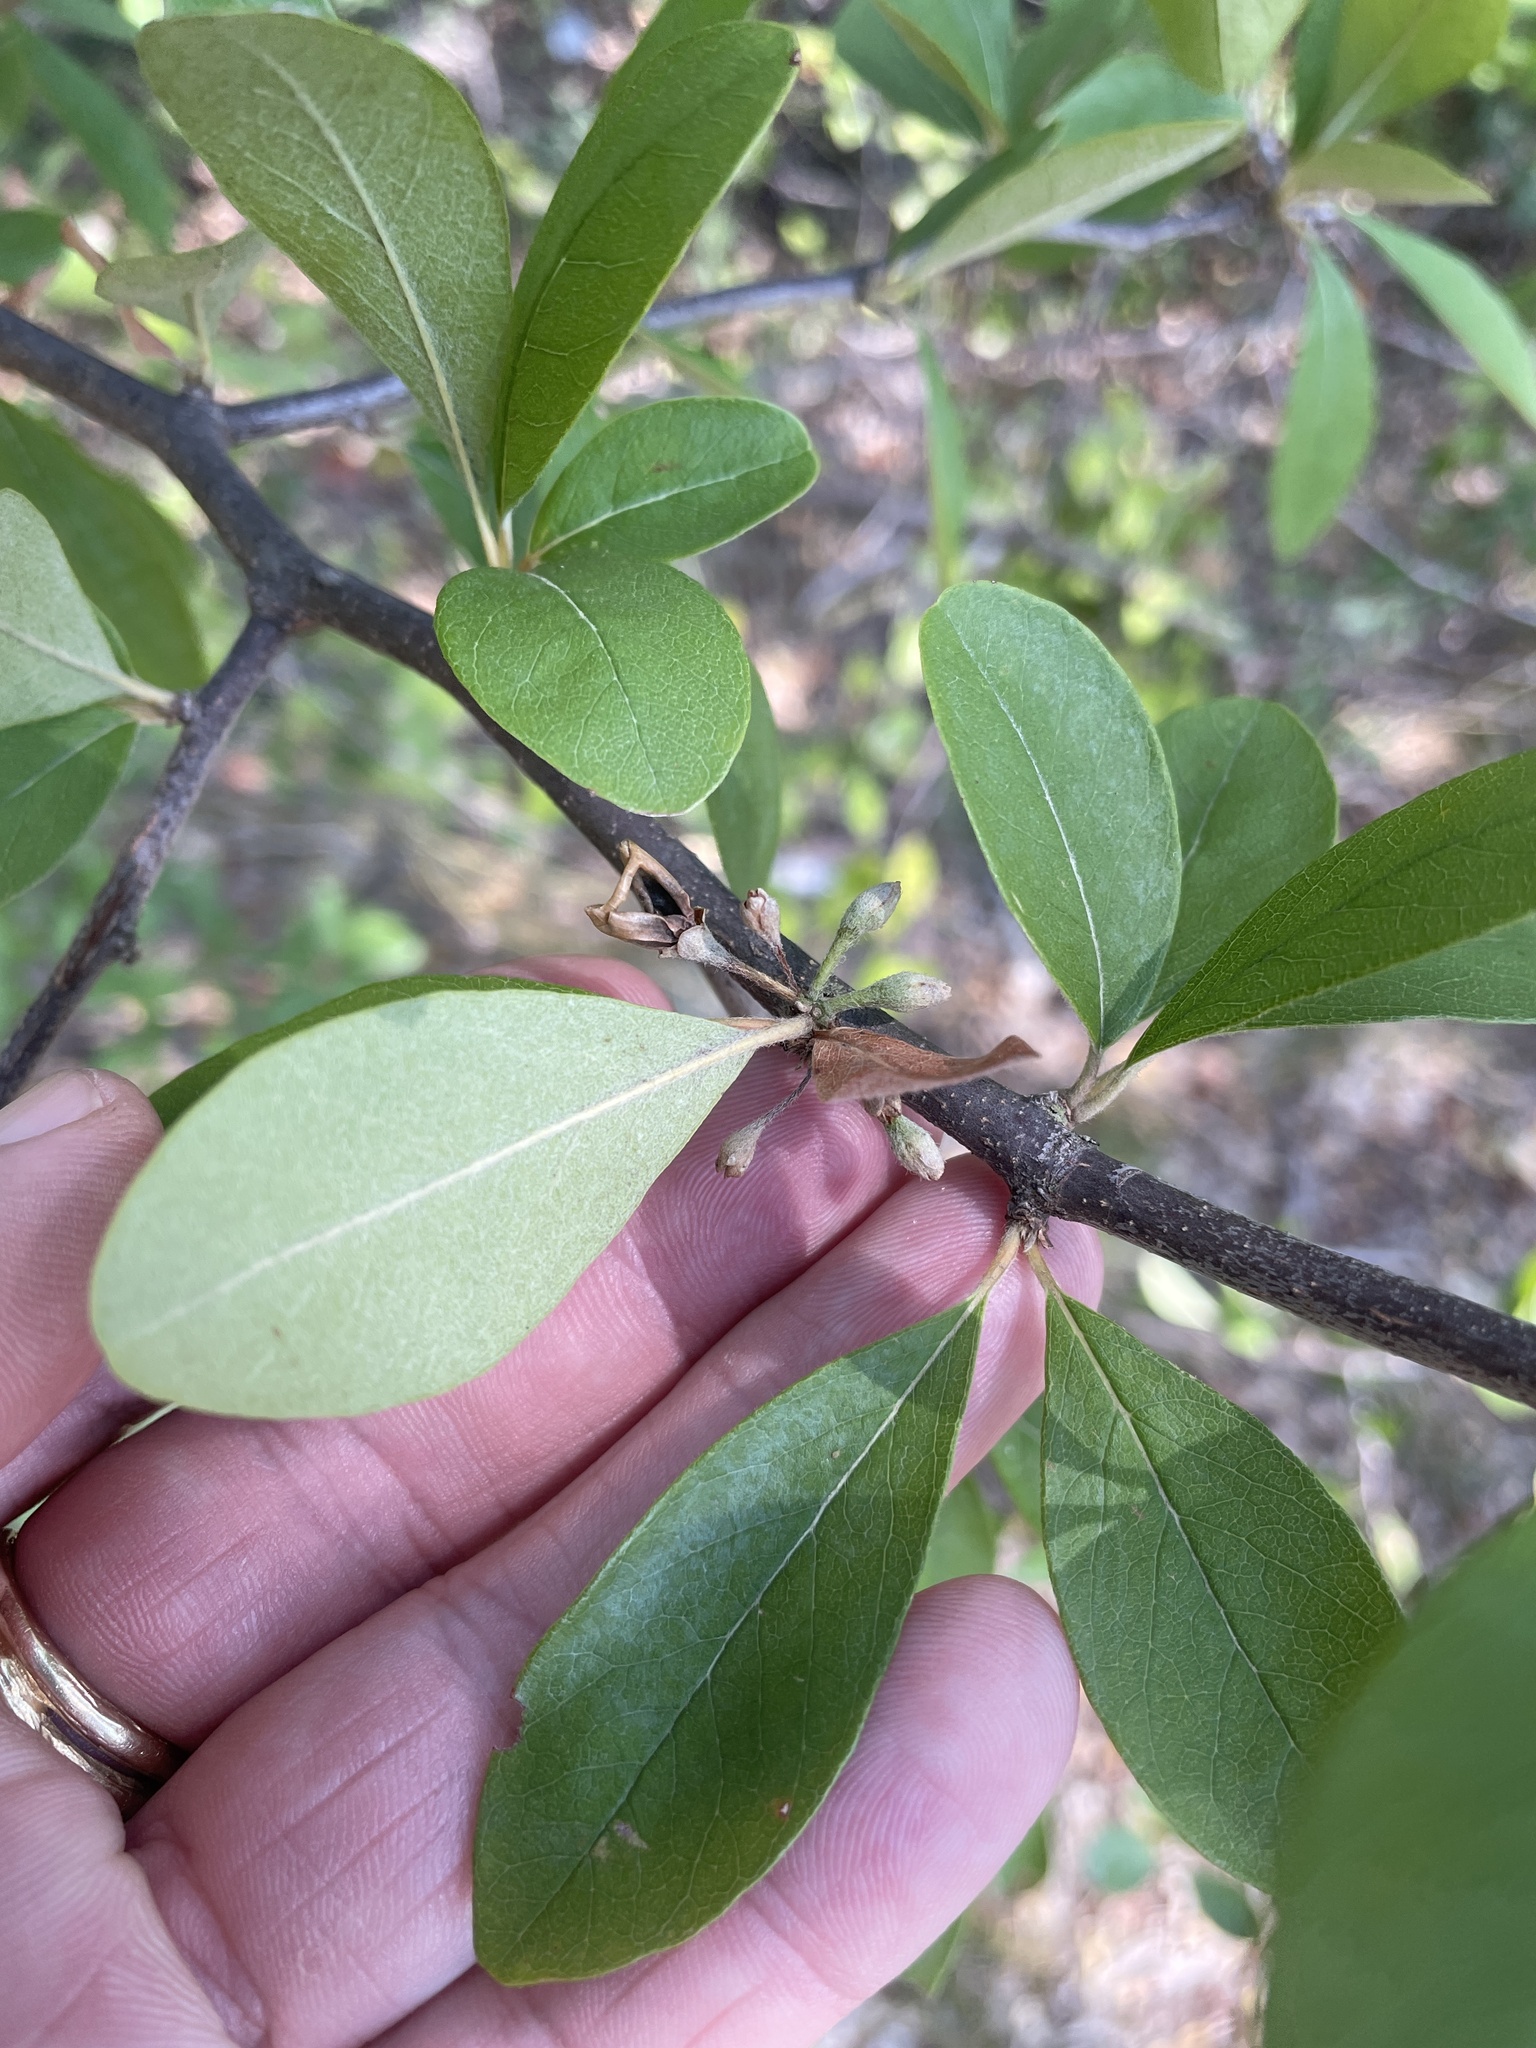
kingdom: Plantae
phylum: Tracheophyta
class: Magnoliopsida
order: Ericales
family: Sapotaceae
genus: Sideroxylon
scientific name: Sideroxylon lanuginosum
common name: Chittamwood
